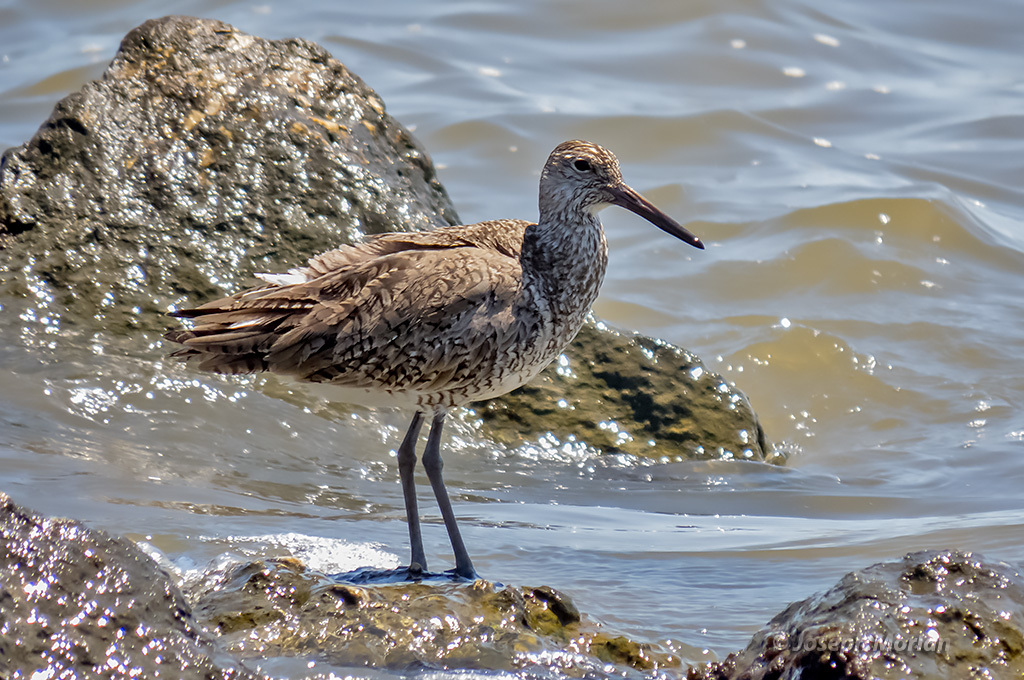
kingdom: Animalia
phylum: Chordata
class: Aves
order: Charadriiformes
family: Scolopacidae
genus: Tringa
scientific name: Tringa semipalmata
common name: Willet
